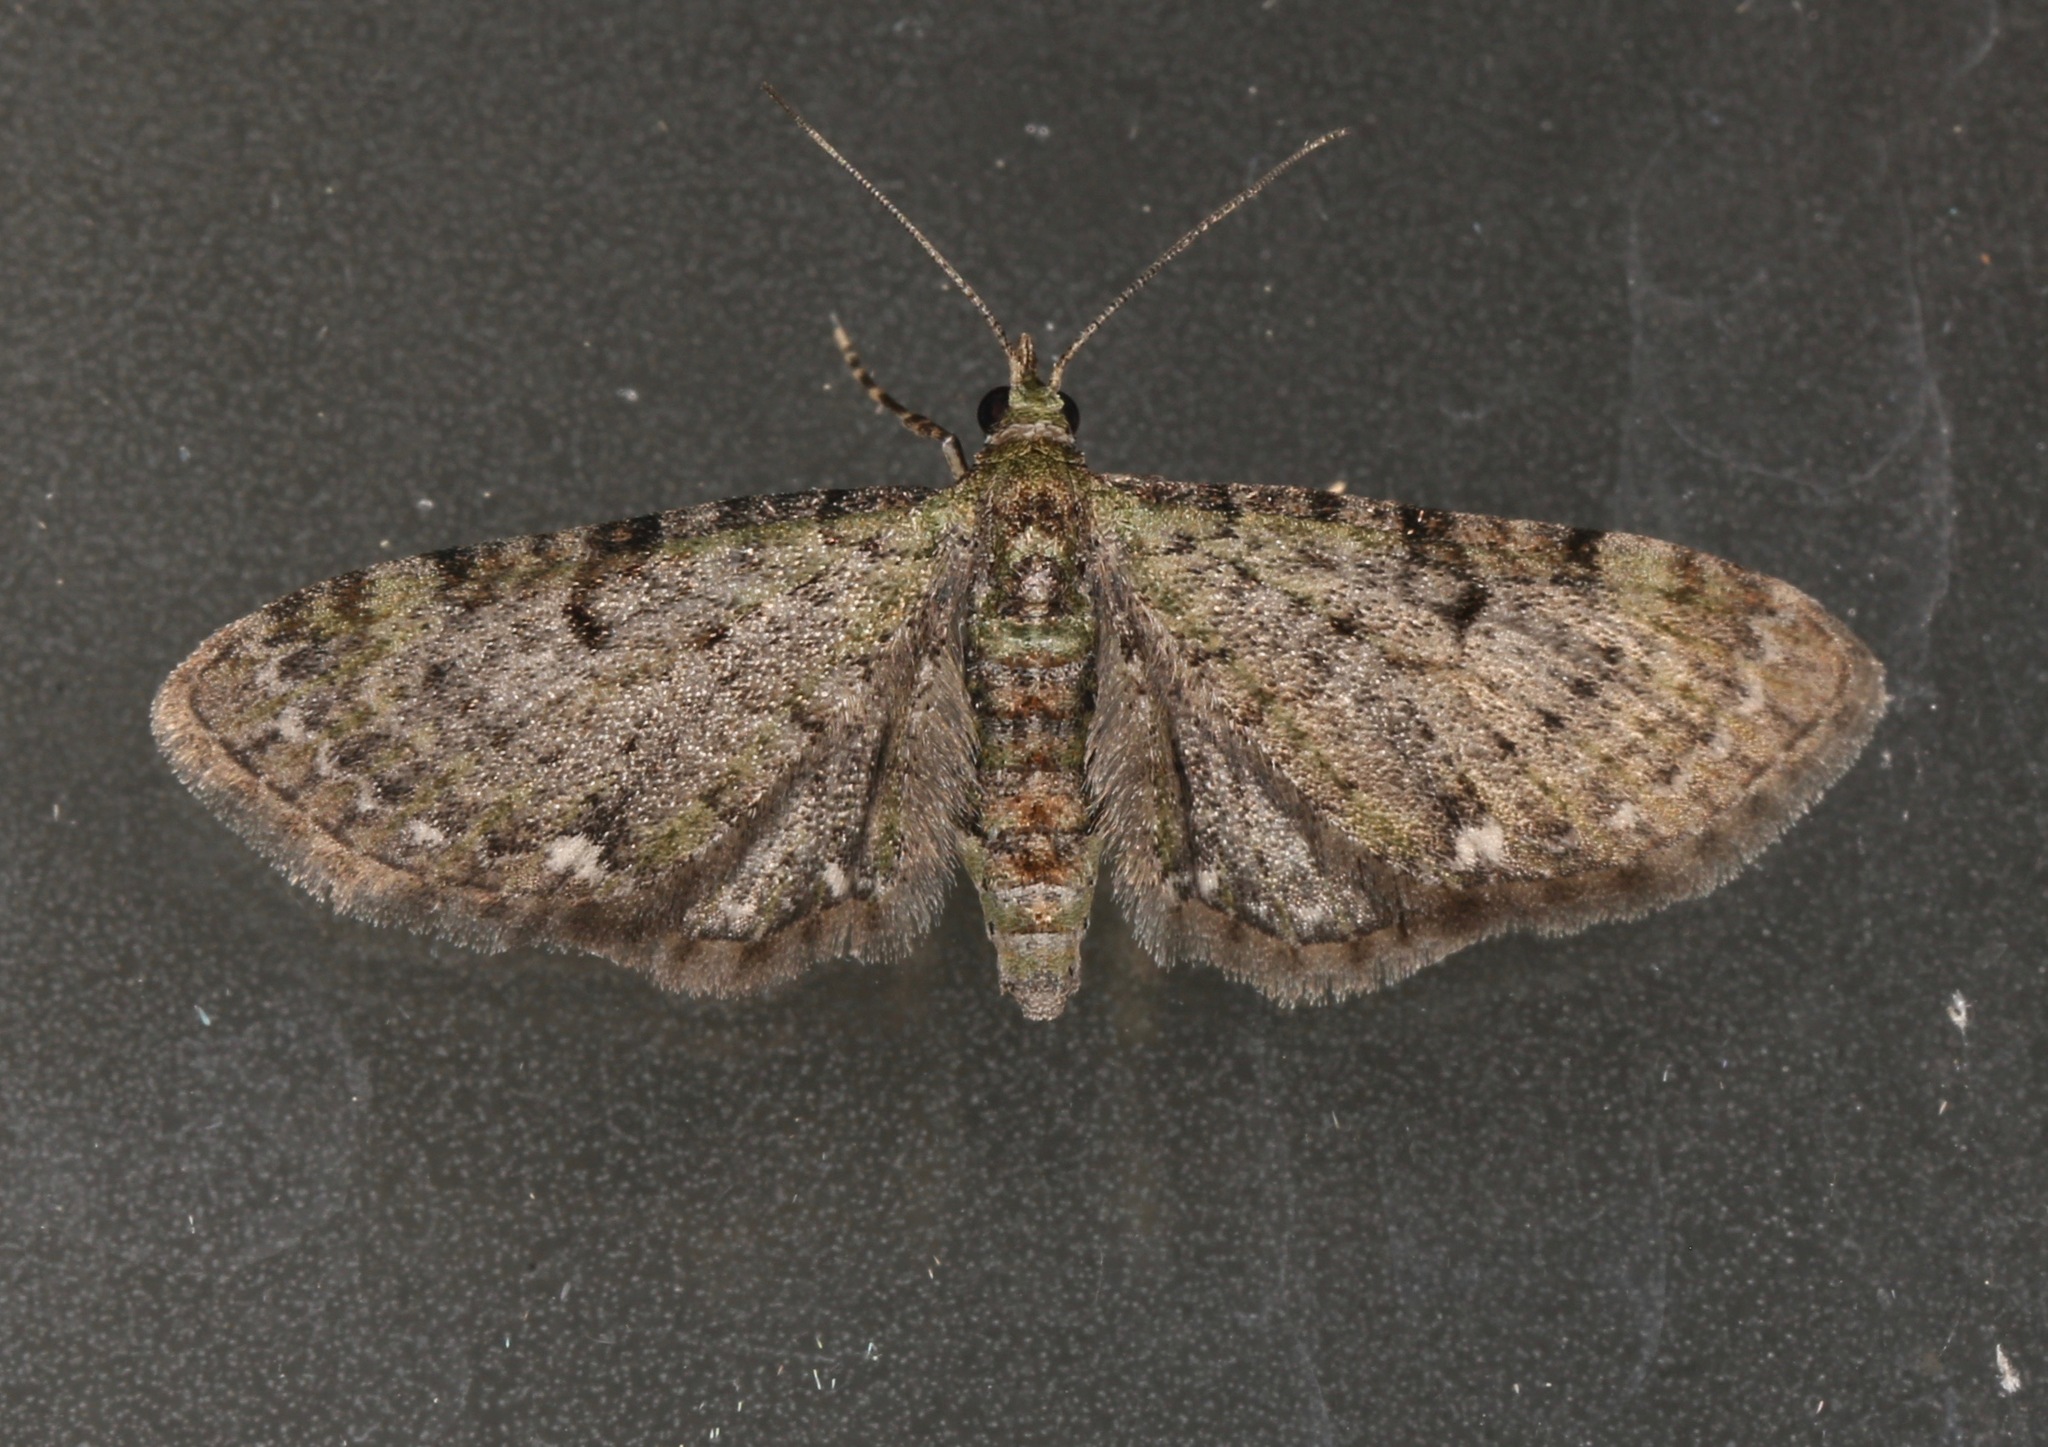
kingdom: Animalia
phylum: Arthropoda
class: Insecta
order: Lepidoptera
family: Geometridae
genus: Eupithecia
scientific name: Eupithecia miserulata
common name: Common eupithecia
